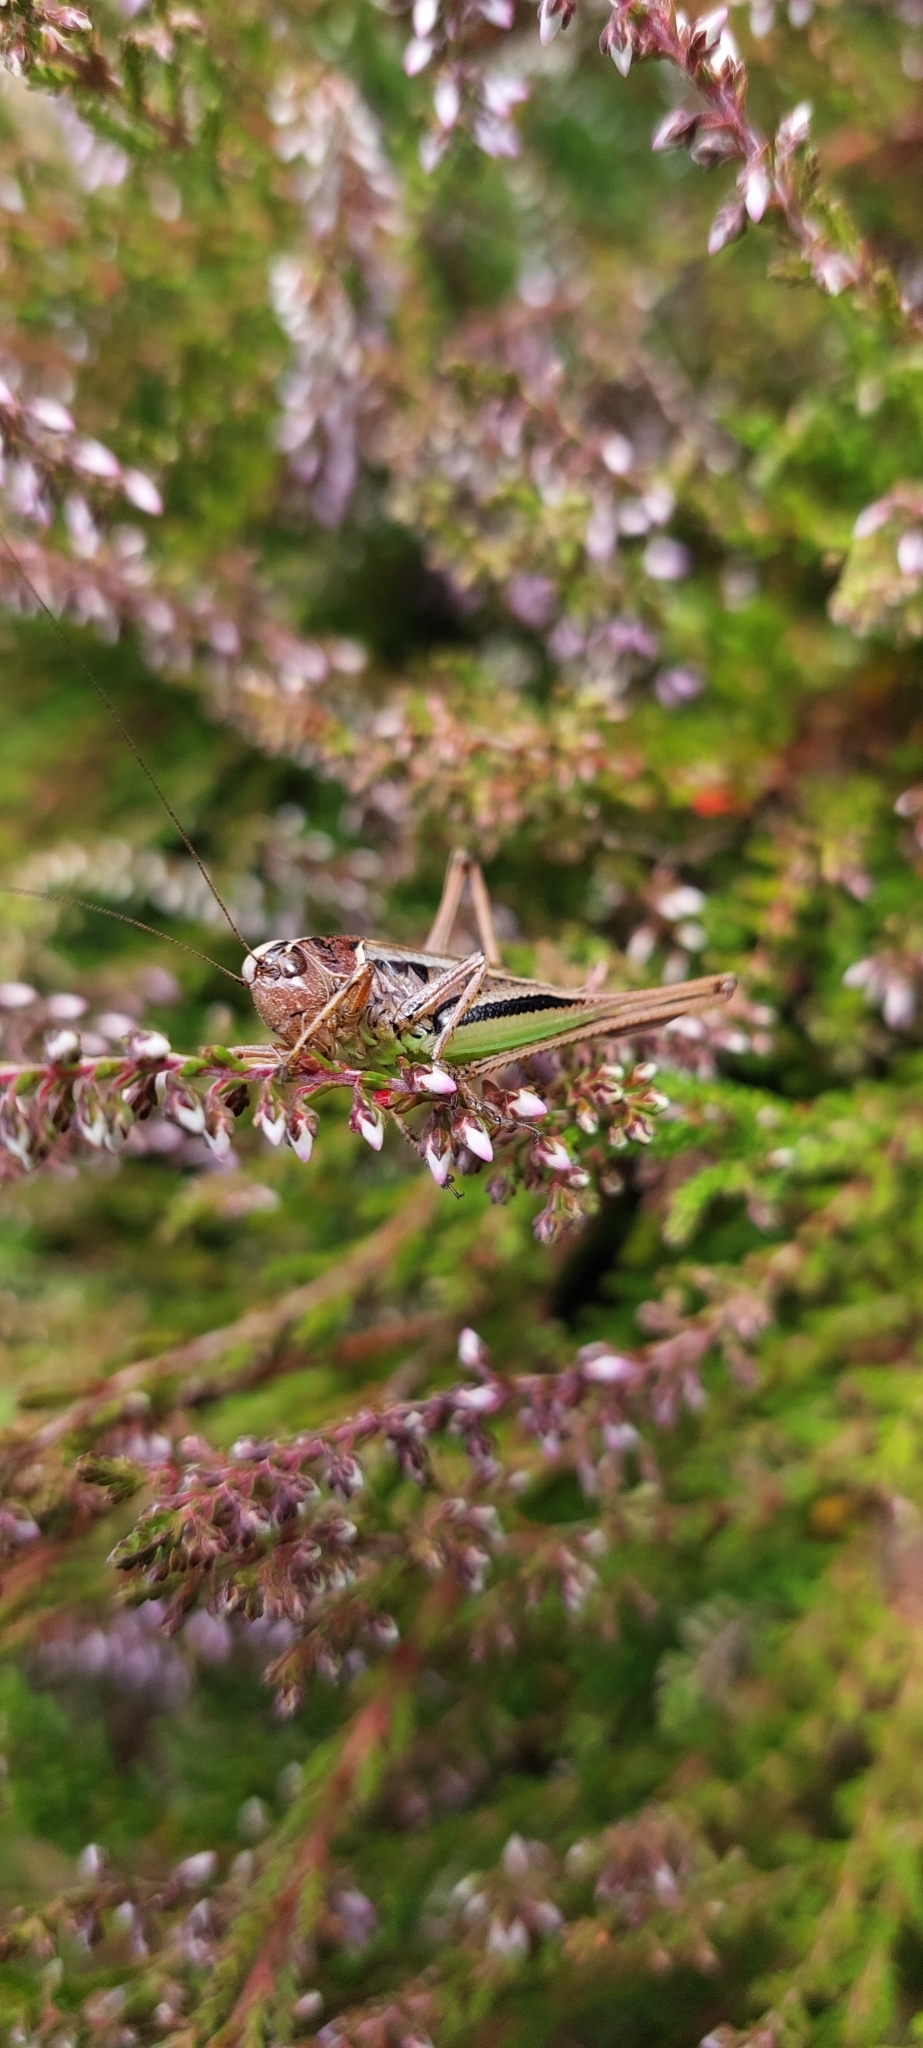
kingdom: Animalia
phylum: Arthropoda
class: Insecta
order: Orthoptera
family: Tettigoniidae
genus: Metrioptera
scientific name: Metrioptera brachyptera
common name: Bog bush-cricket
